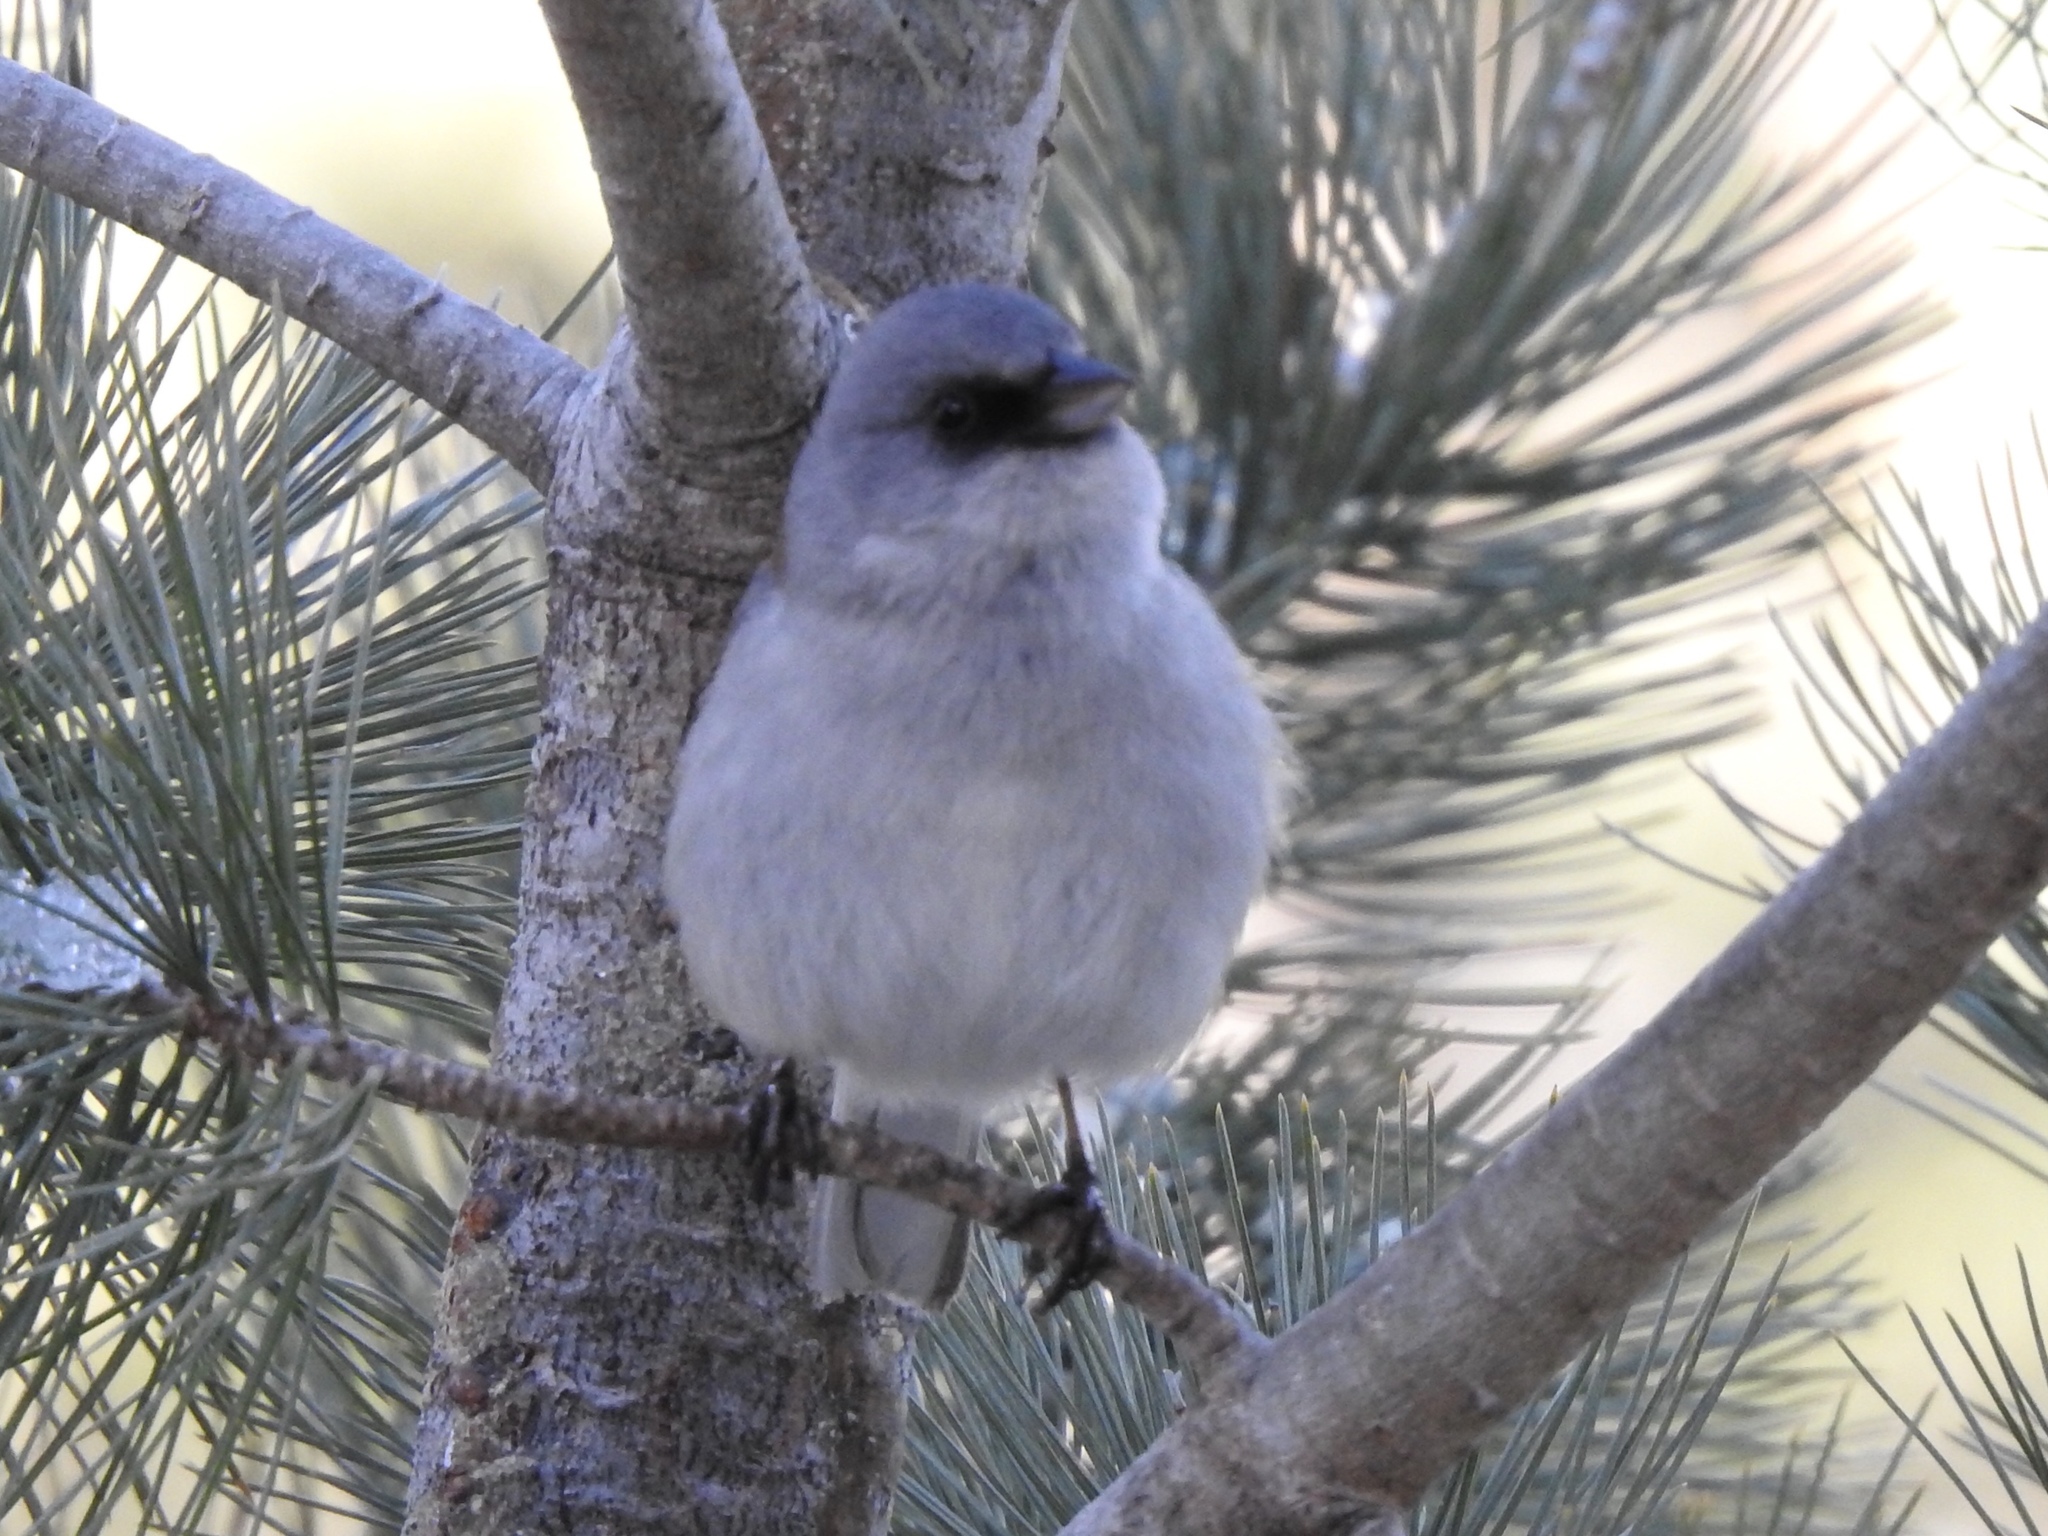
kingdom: Animalia
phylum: Chordata
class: Aves
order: Passeriformes
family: Passerellidae
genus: Junco
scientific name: Junco hyemalis
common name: Dark-eyed junco
